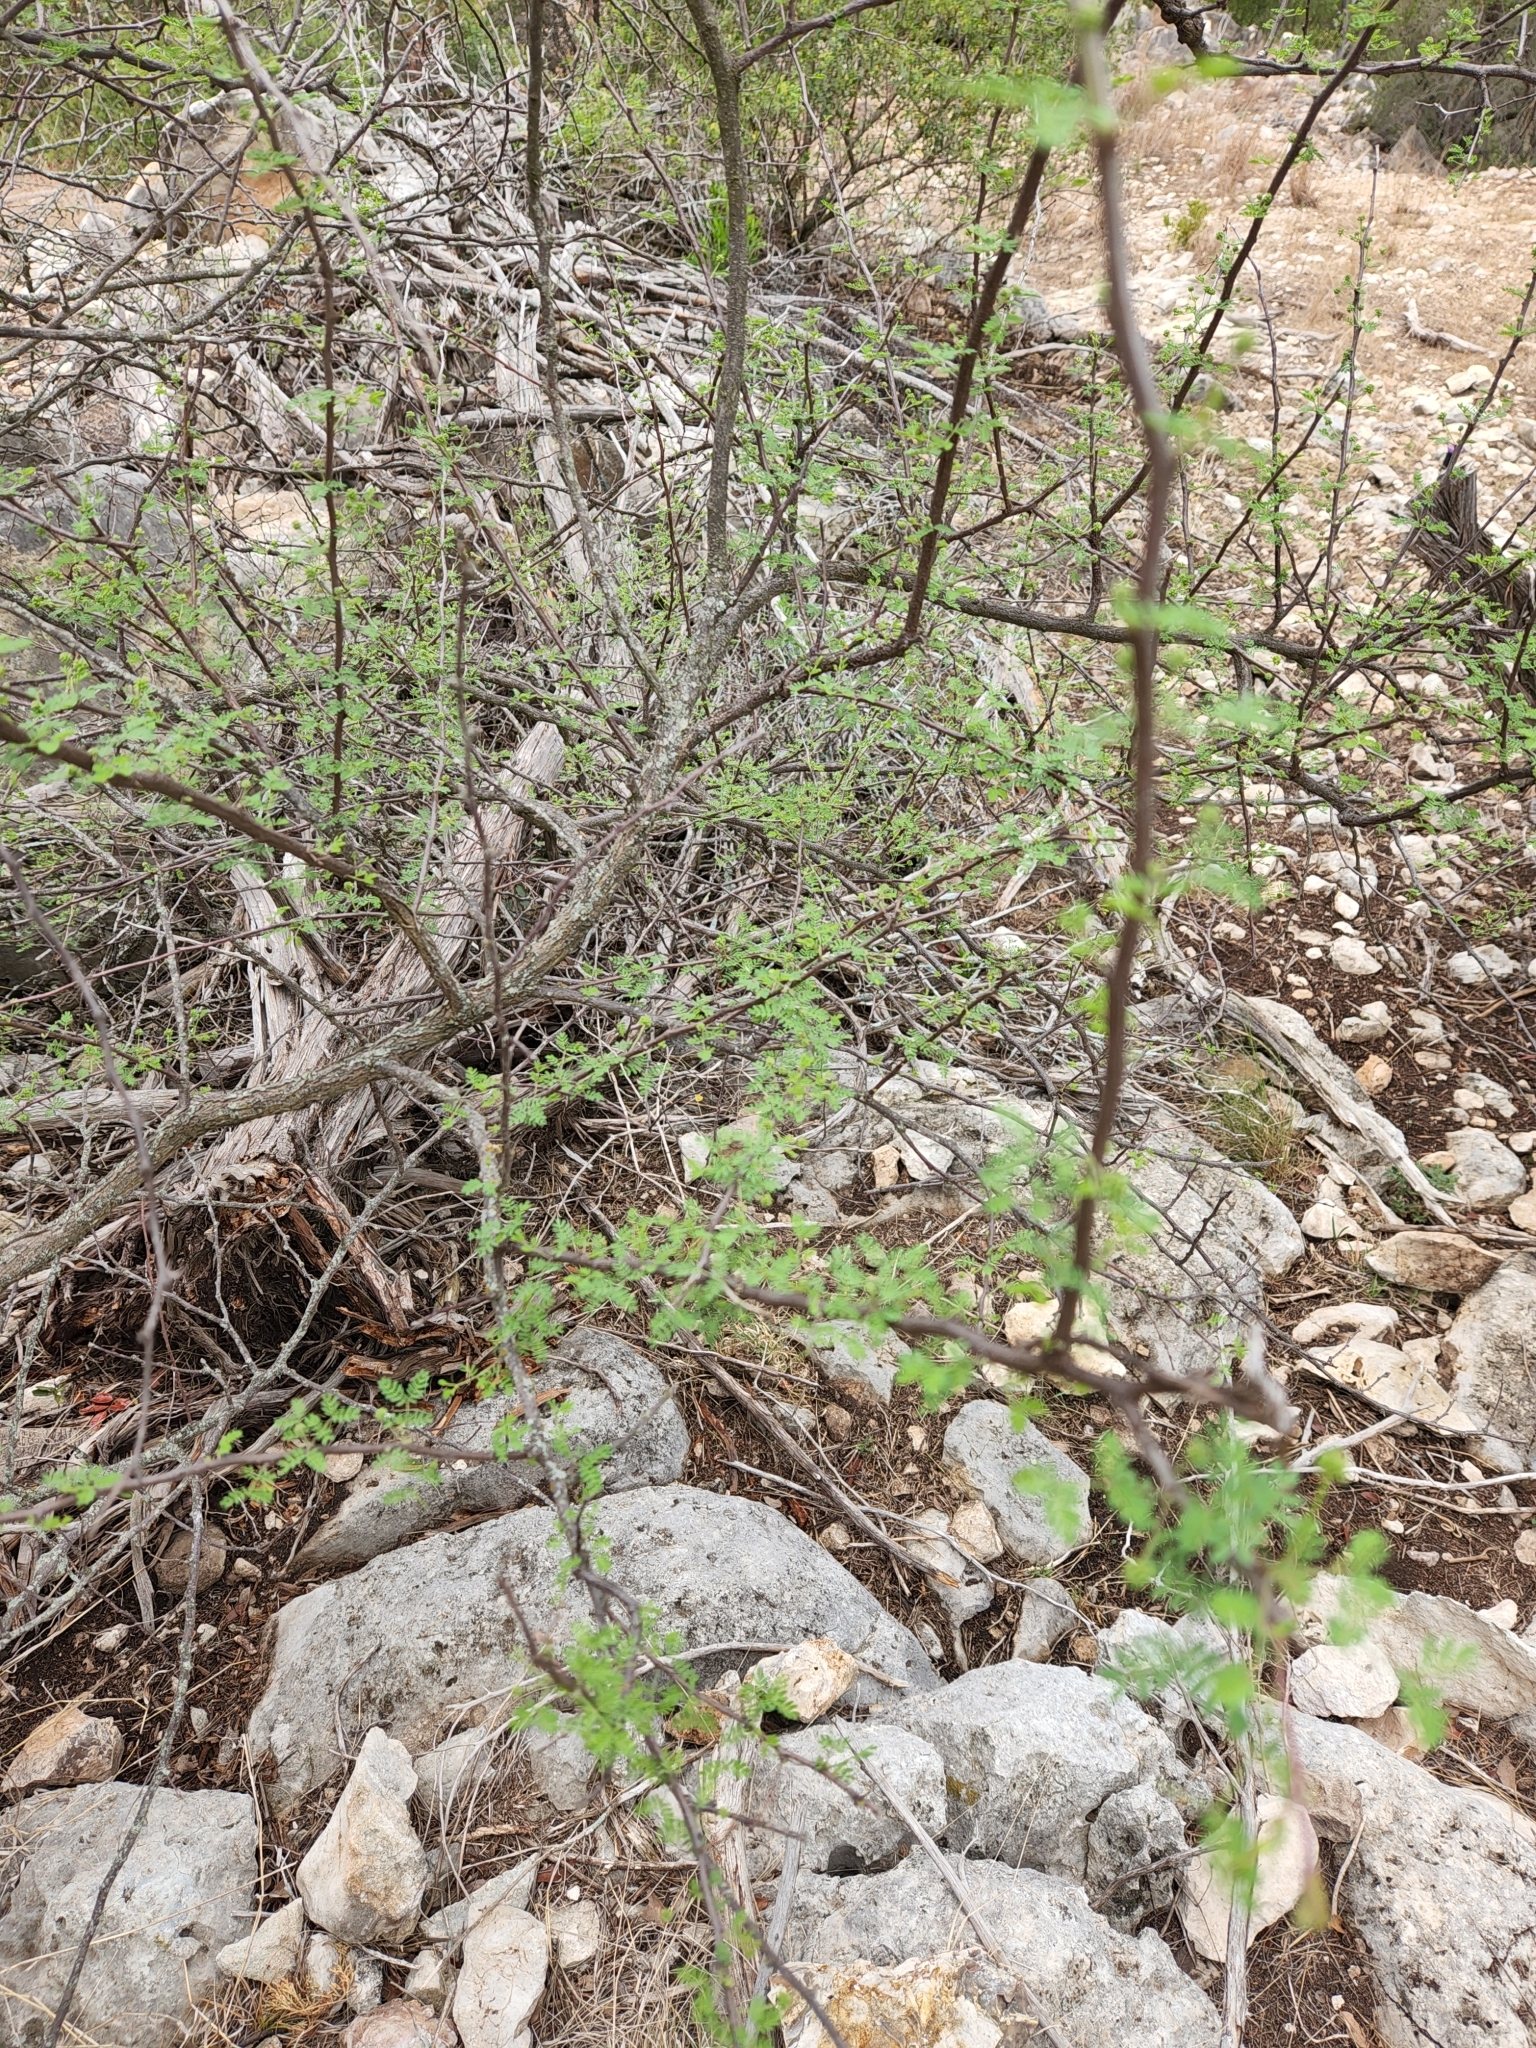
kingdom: Plantae
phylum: Tracheophyta
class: Magnoliopsida
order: Fabales
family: Fabaceae
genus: Mimosa
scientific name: Mimosa texana
